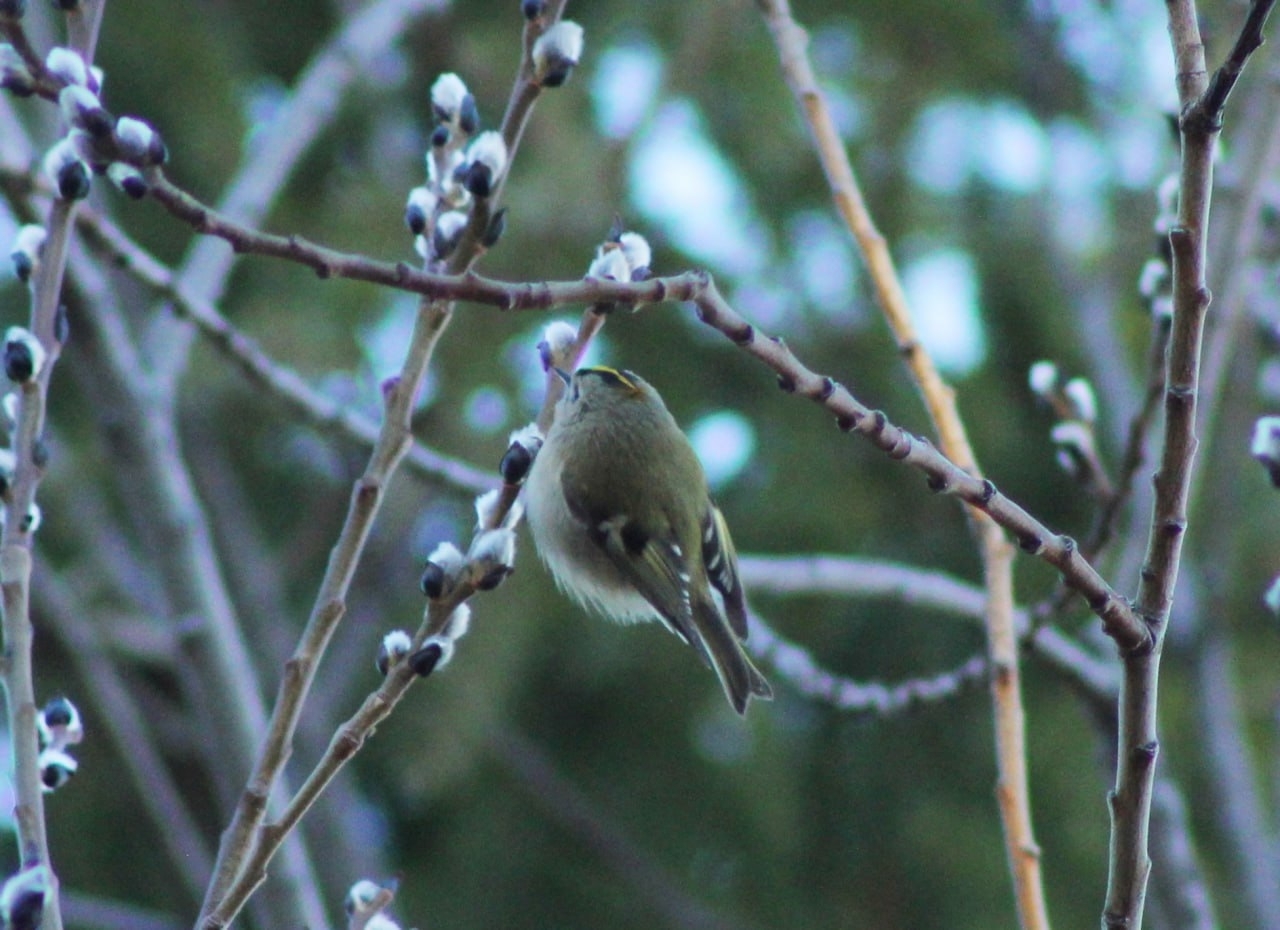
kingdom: Animalia
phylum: Chordata
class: Aves
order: Passeriformes
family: Regulidae
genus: Regulus
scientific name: Regulus regulus
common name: Goldcrest
